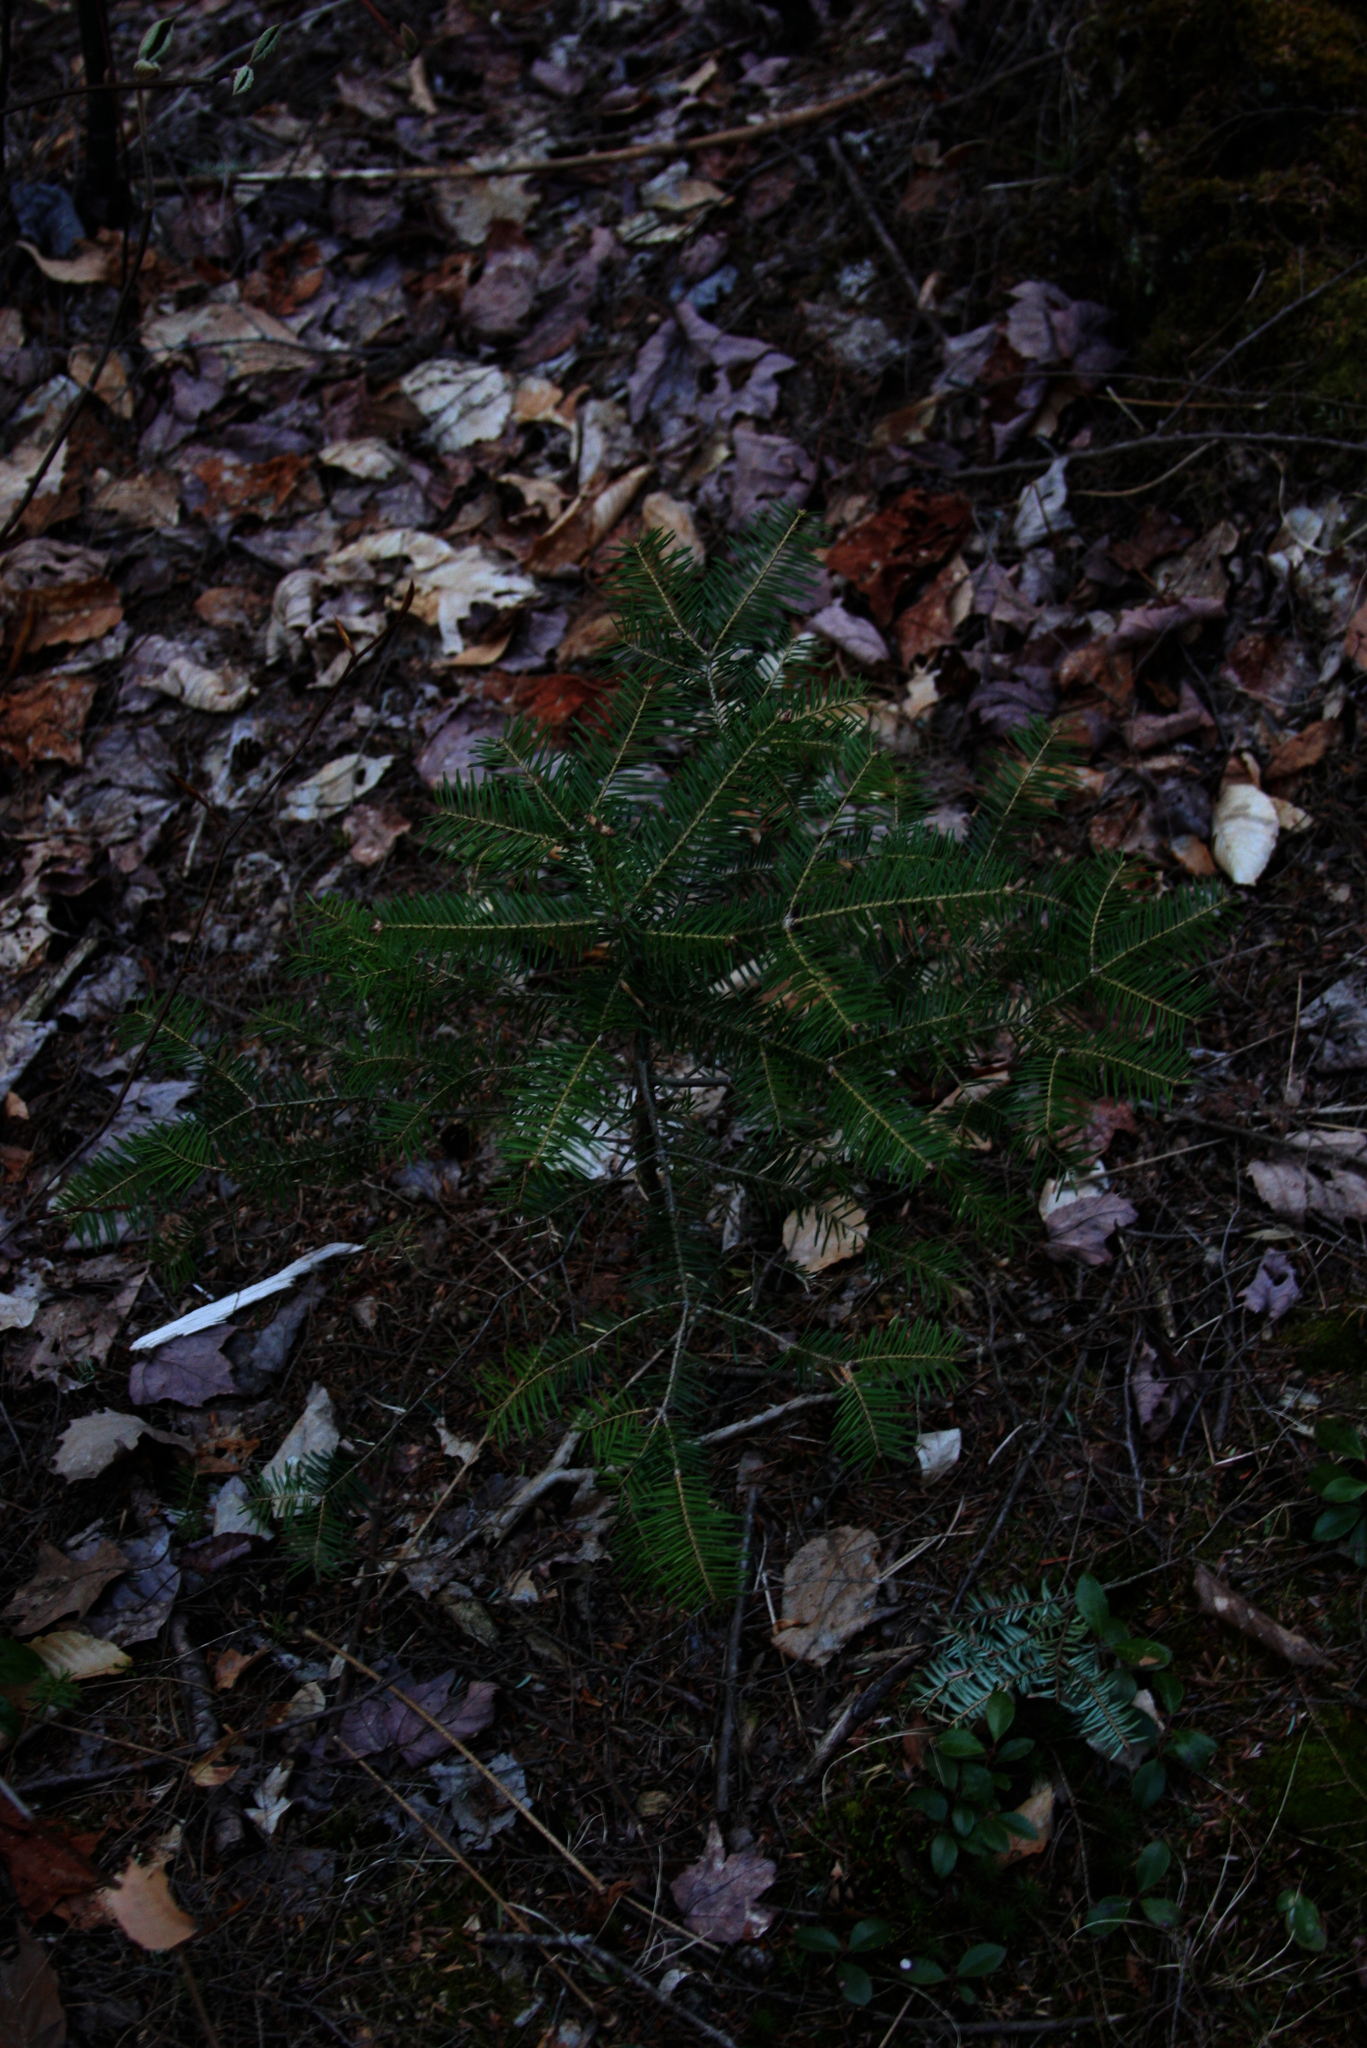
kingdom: Plantae
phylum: Tracheophyta
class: Pinopsida
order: Pinales
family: Pinaceae
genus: Abies
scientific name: Abies balsamea
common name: Balsam fir
